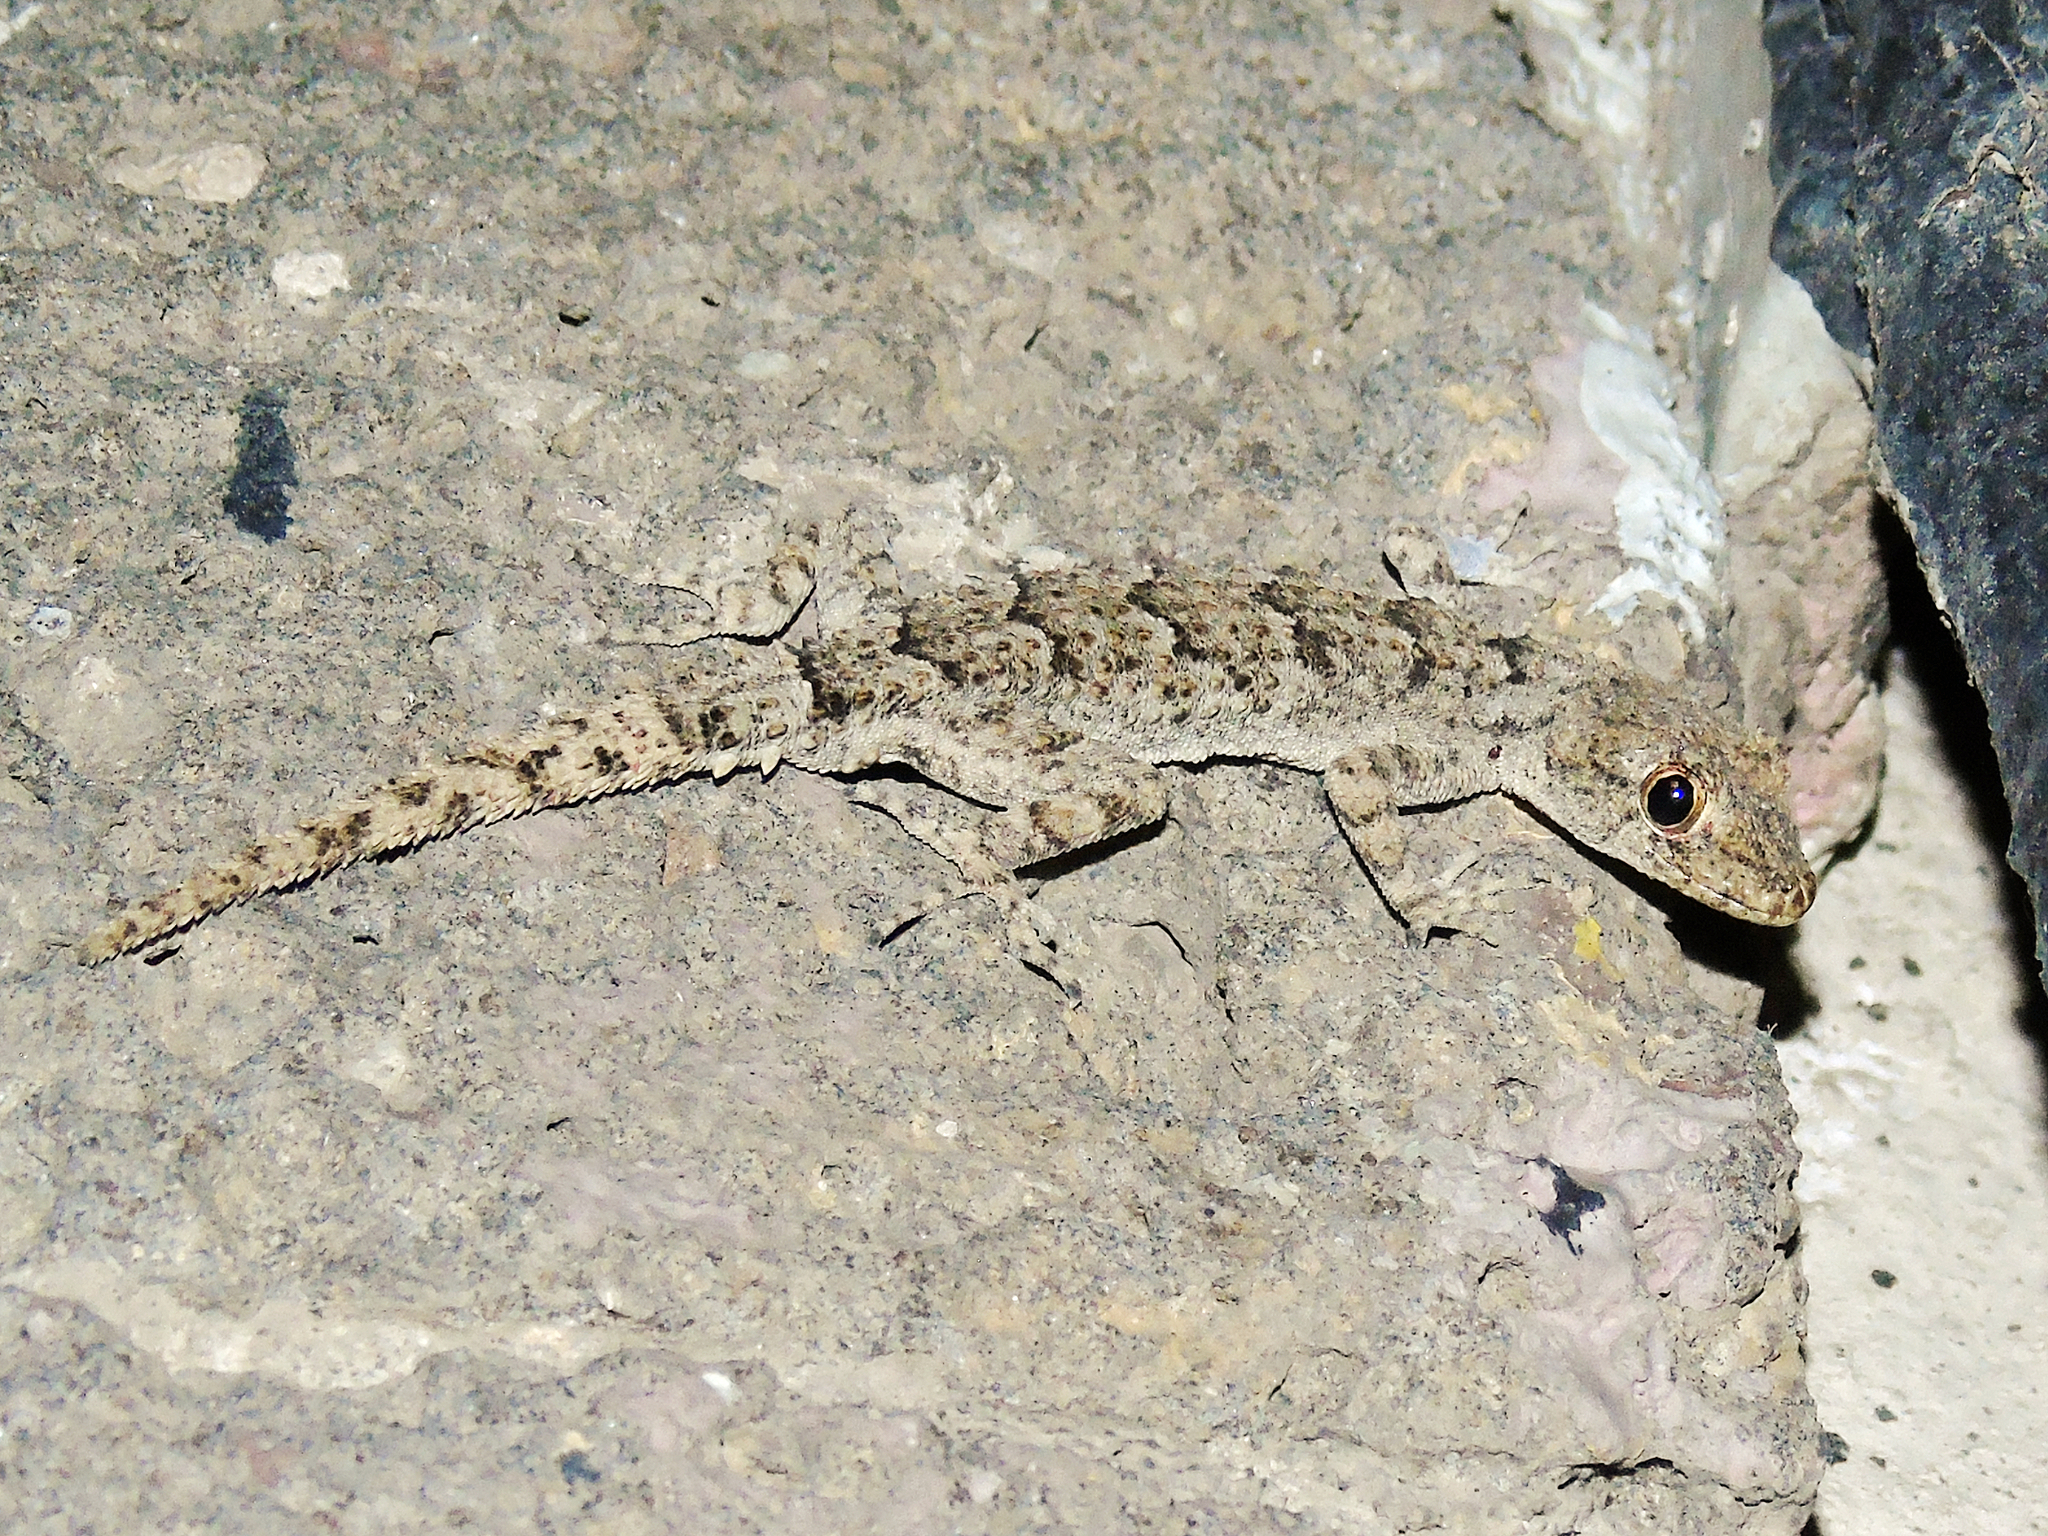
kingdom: Animalia
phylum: Chordata
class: Squamata
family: Gekkonidae
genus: Mediodactylus
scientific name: Mediodactylus heterocercus
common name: Asia minor thin-toed gecko
